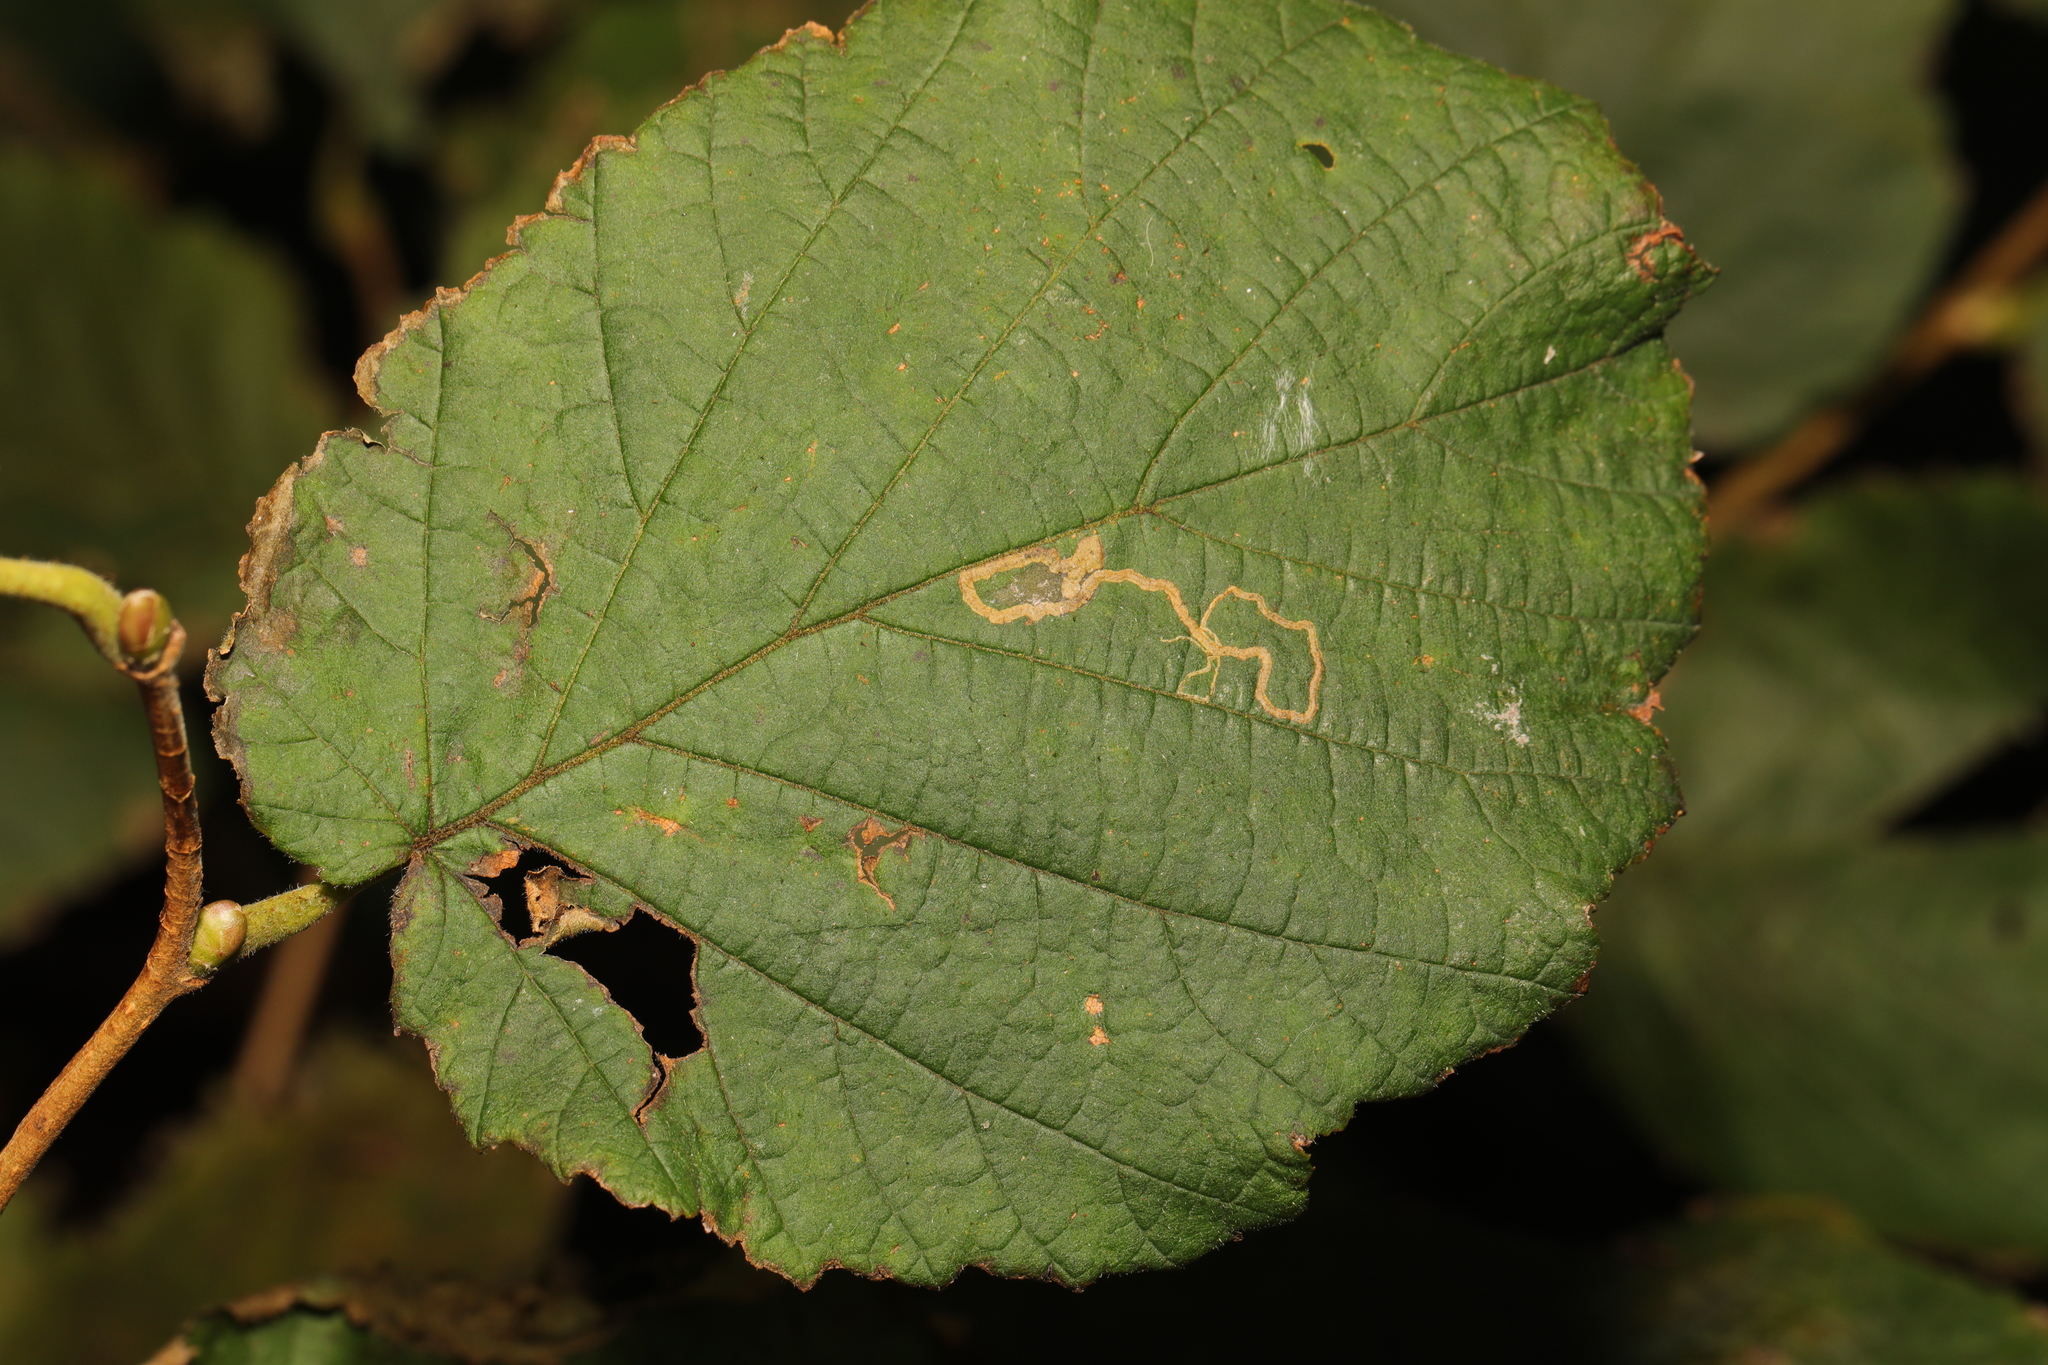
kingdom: Animalia
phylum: Arthropoda
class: Insecta
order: Lepidoptera
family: Nepticulidae
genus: Stigmella
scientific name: Stigmella microtheriella
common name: Nut-tree pigmy
